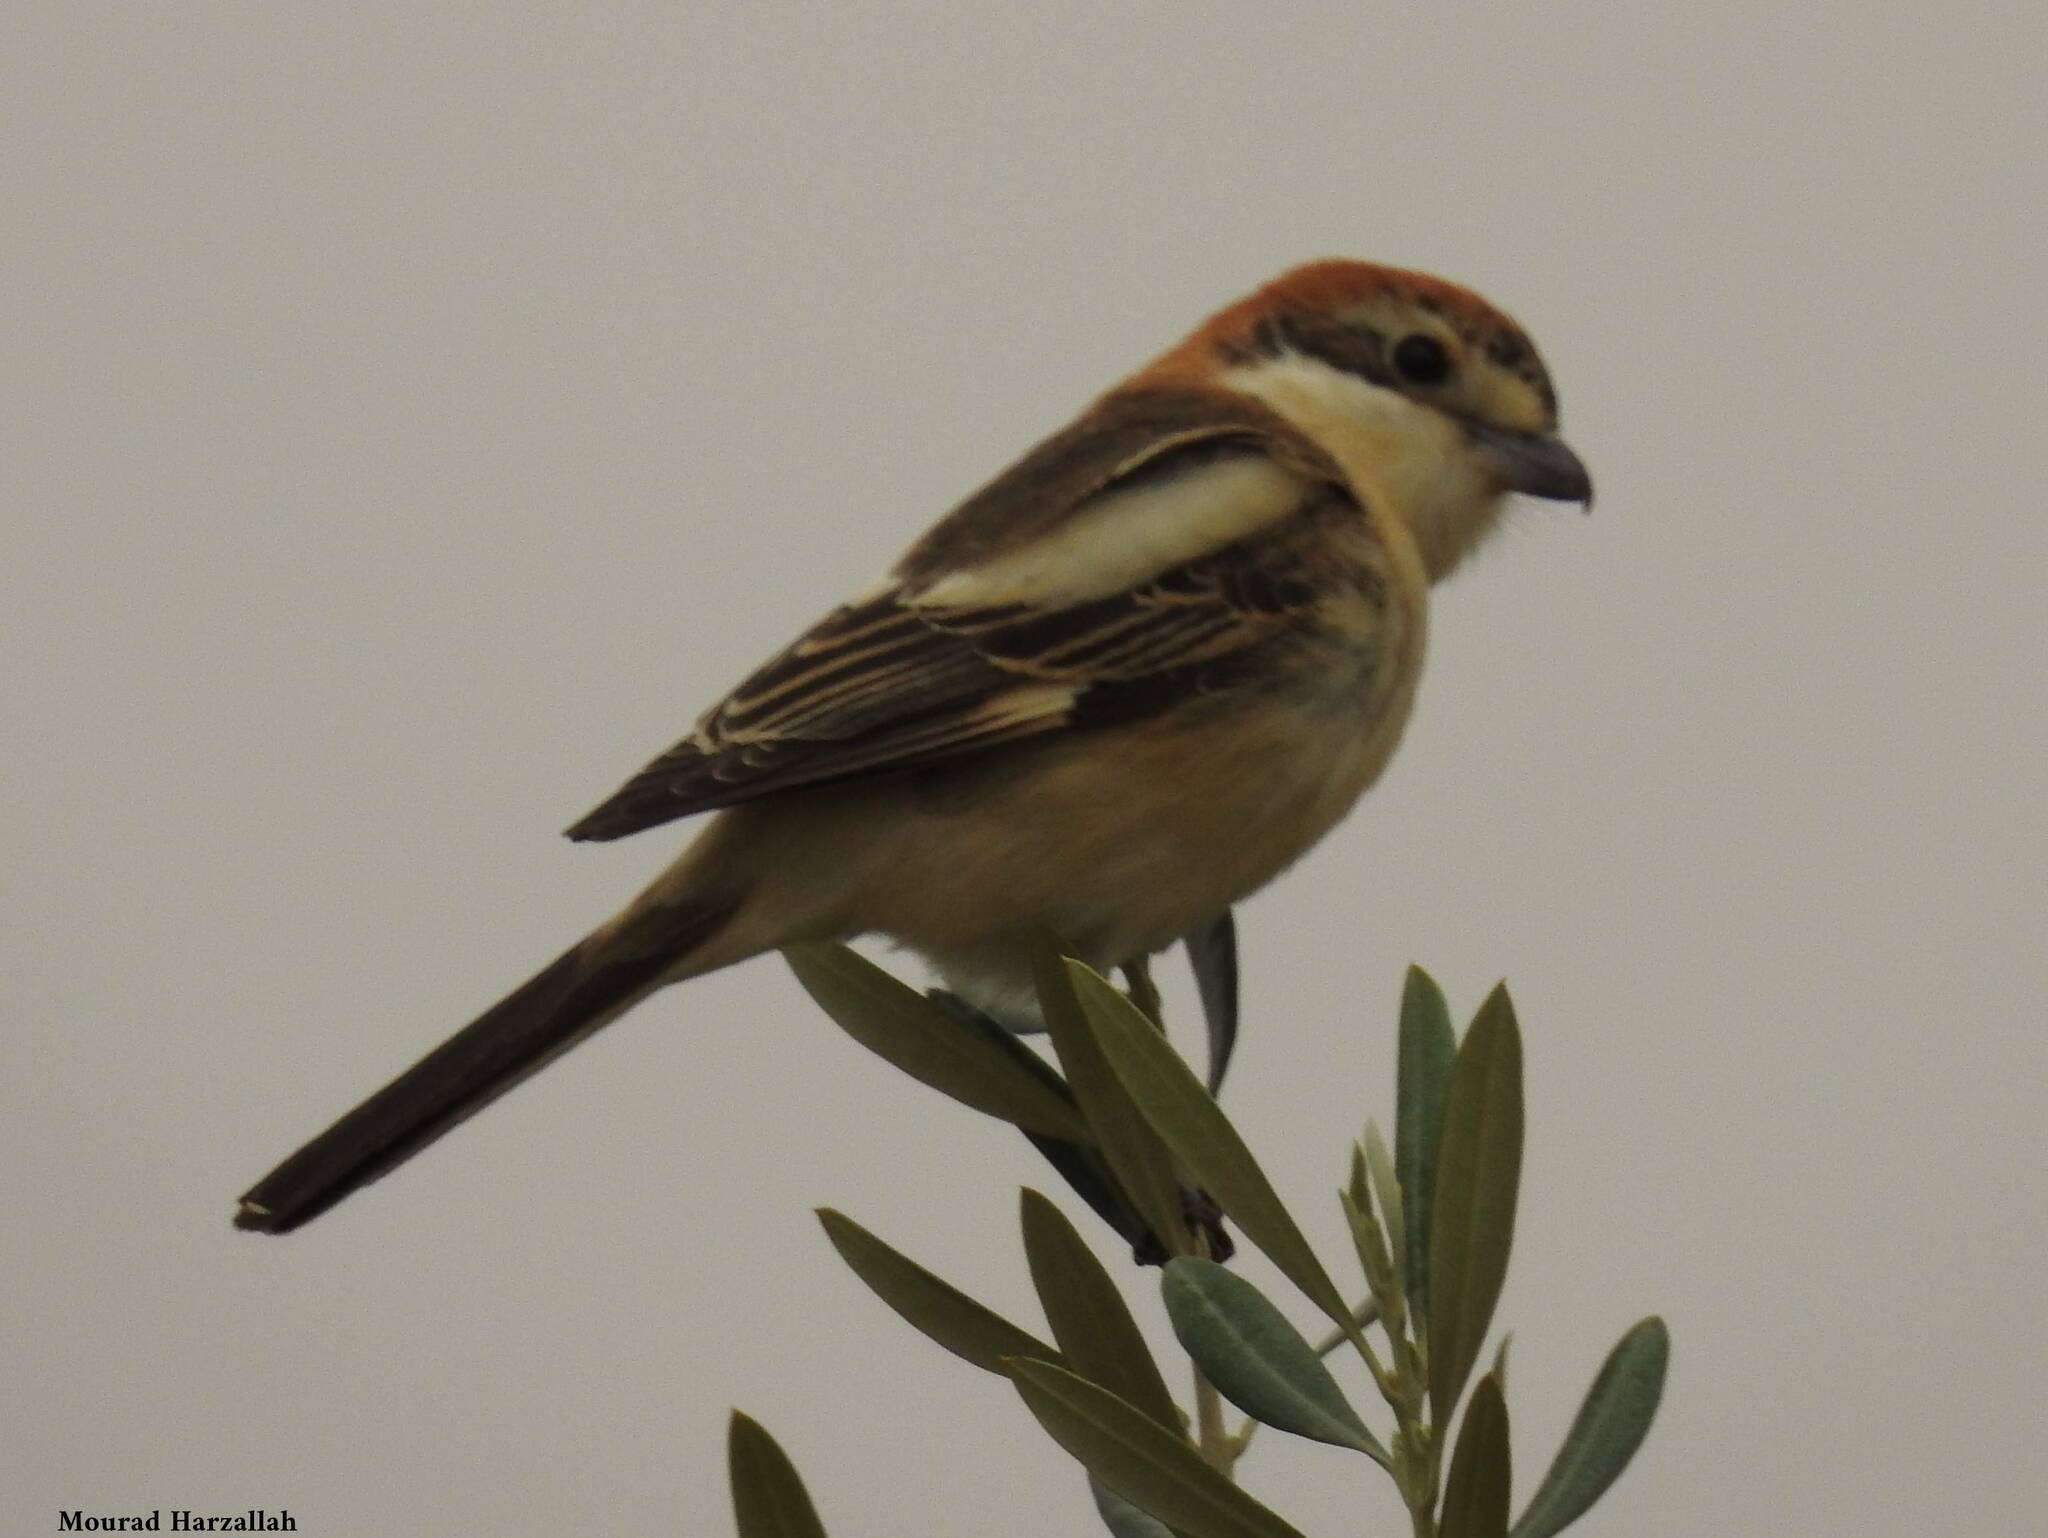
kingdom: Animalia
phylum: Chordata
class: Aves
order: Passeriformes
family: Laniidae
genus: Lanius
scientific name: Lanius senator
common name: Woodchat shrike
